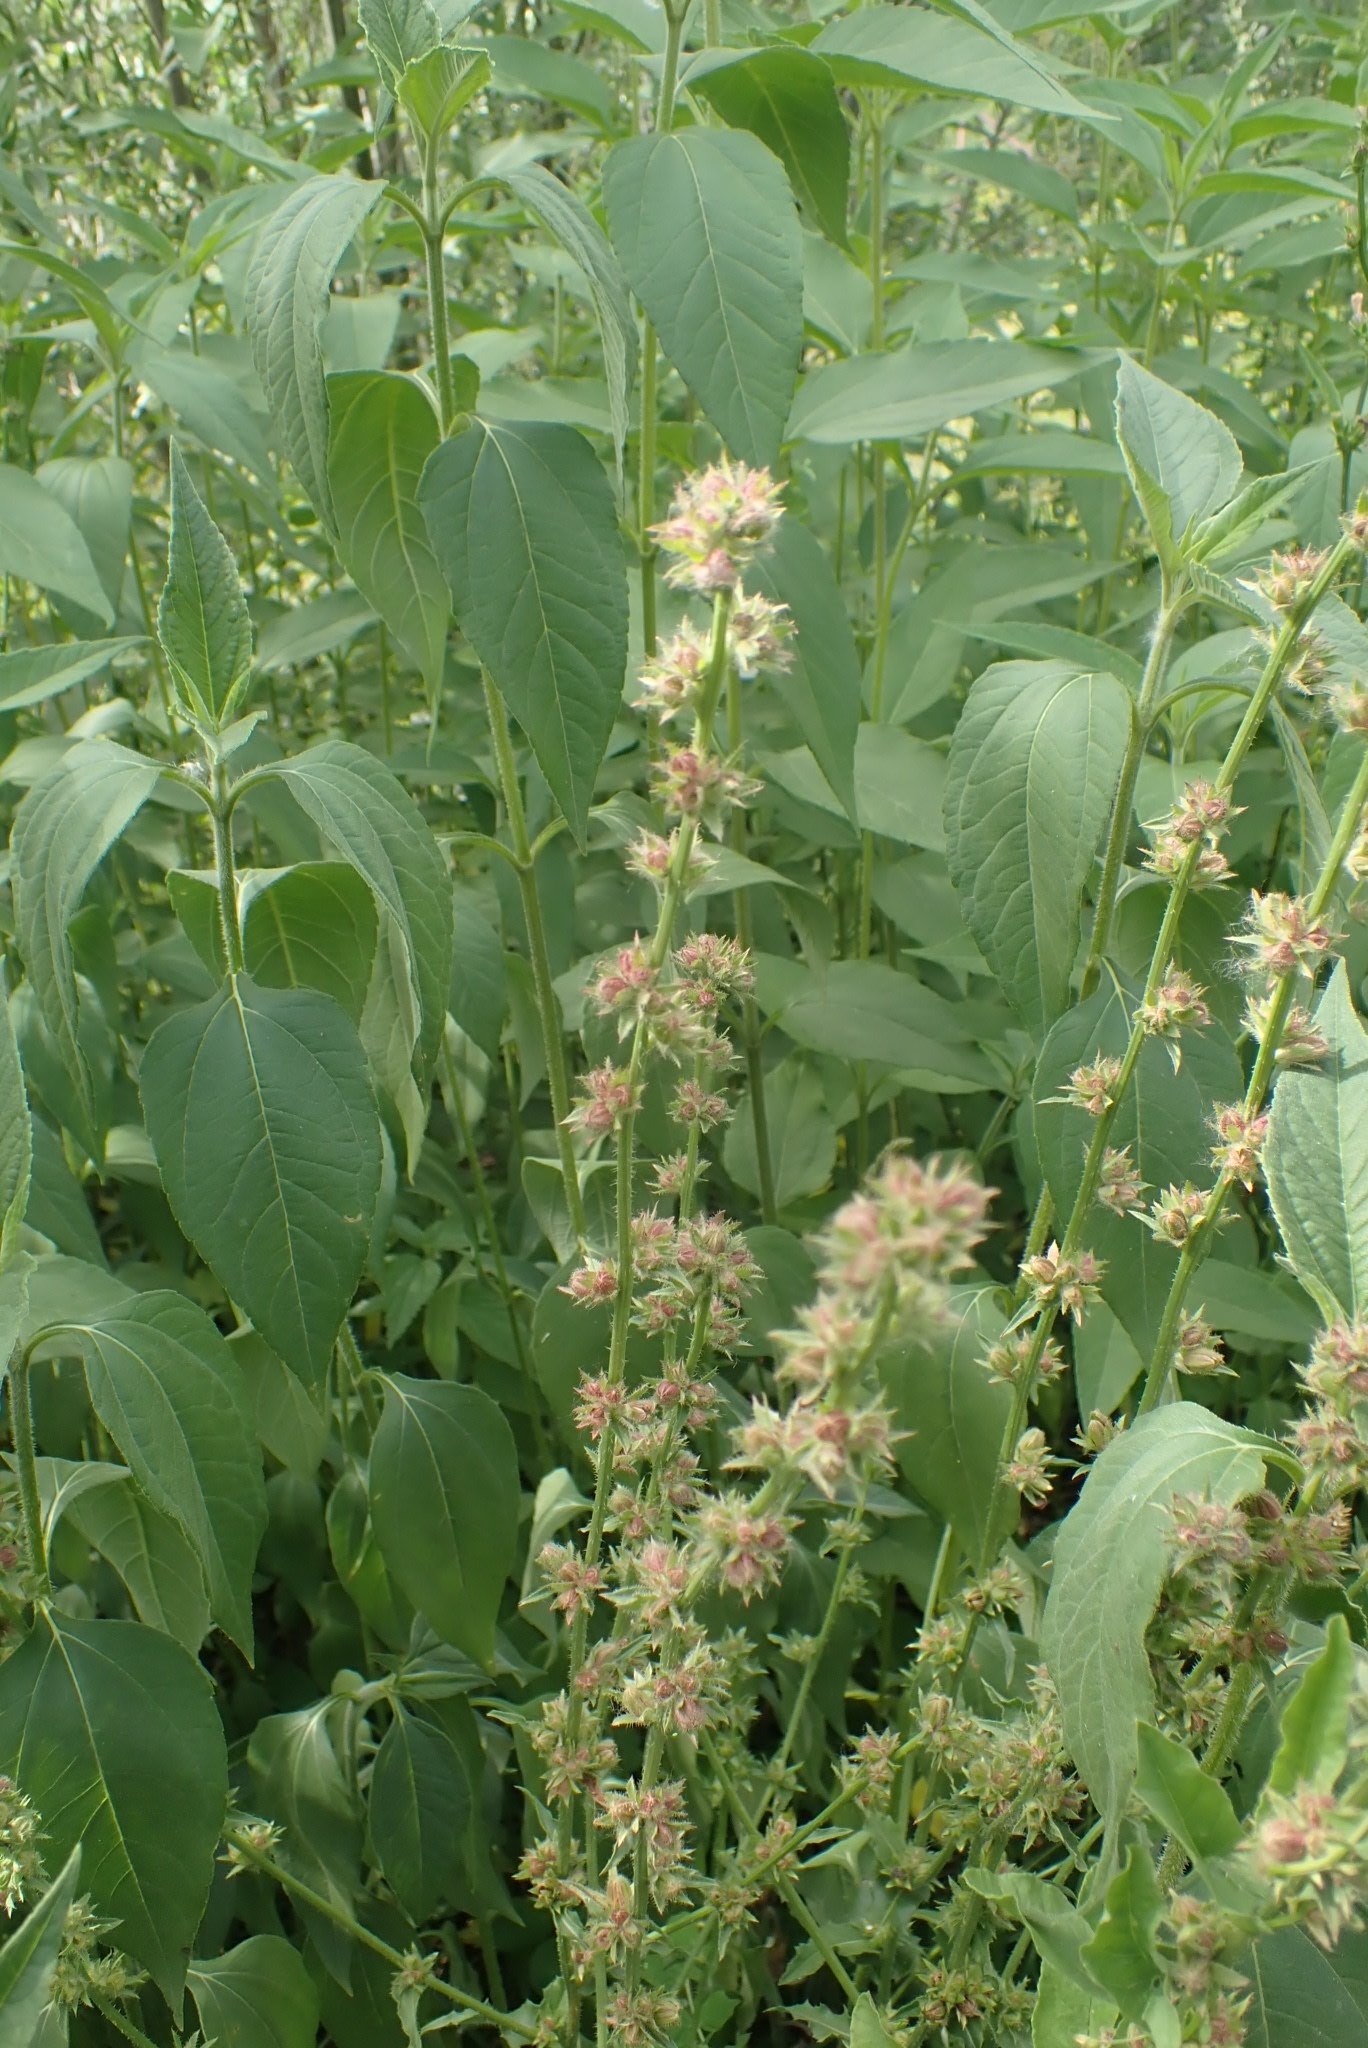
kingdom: Plantae
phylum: Tracheophyta
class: Magnoliopsida
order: Asterales
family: Asteraceae
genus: Cichorium
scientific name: Cichorium intybus
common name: Chicory
